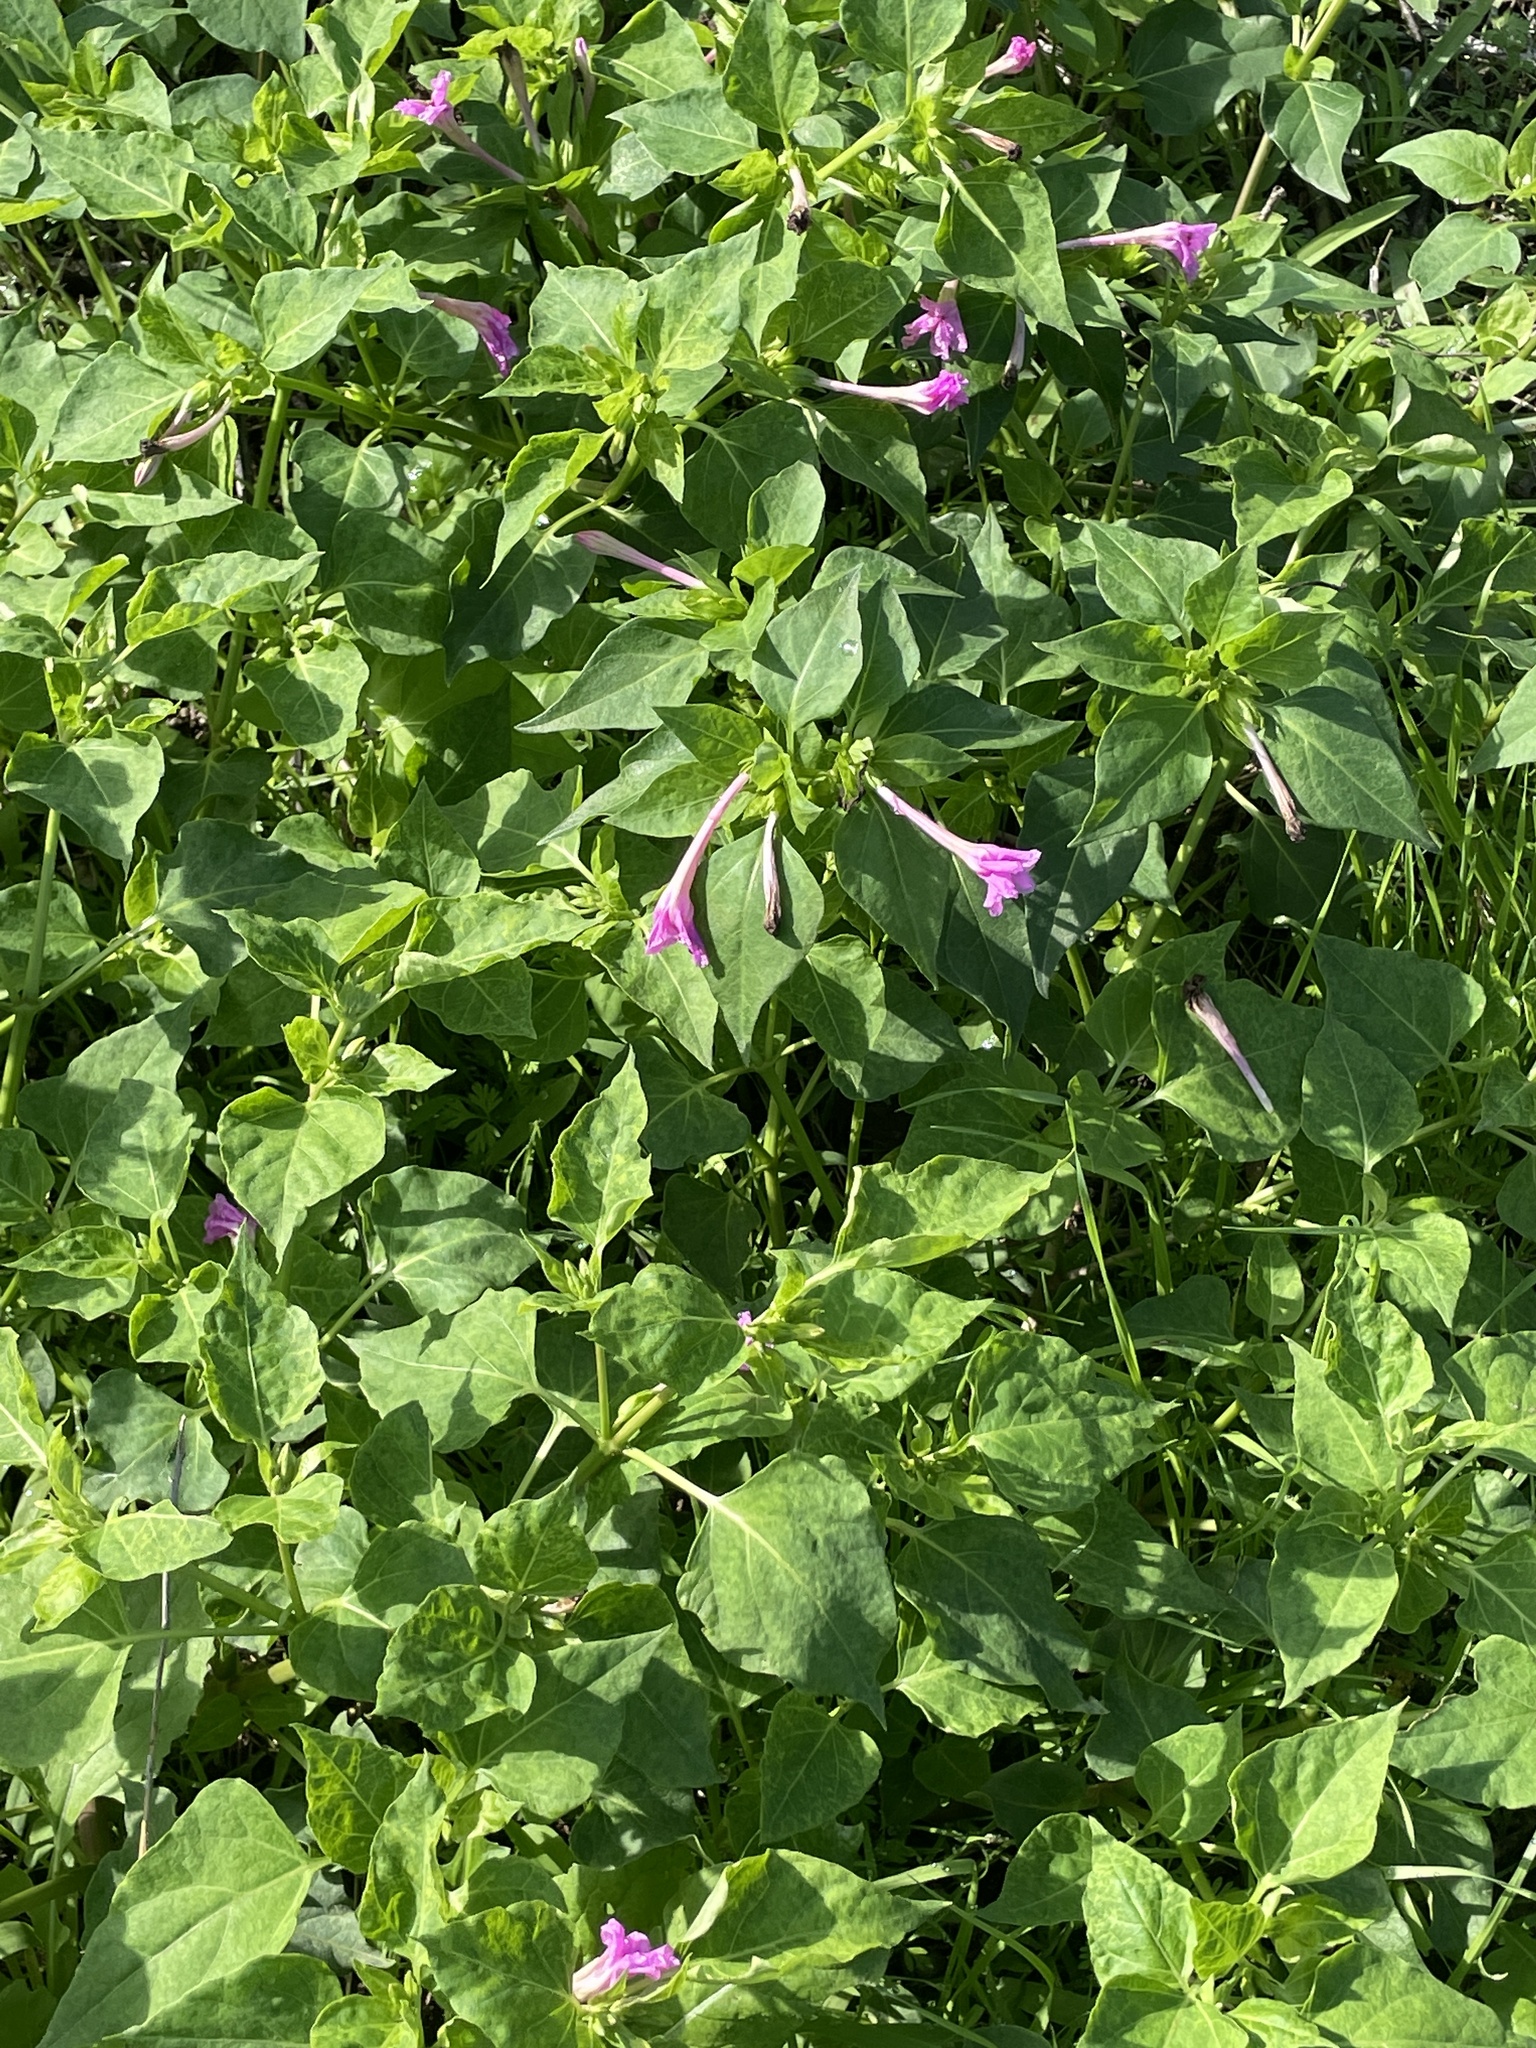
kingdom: Plantae
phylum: Tracheophyta
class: Magnoliopsida
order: Caryophyllales
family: Nyctaginaceae
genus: Mirabilis
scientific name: Mirabilis jalapa
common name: Marvel-of-peru
